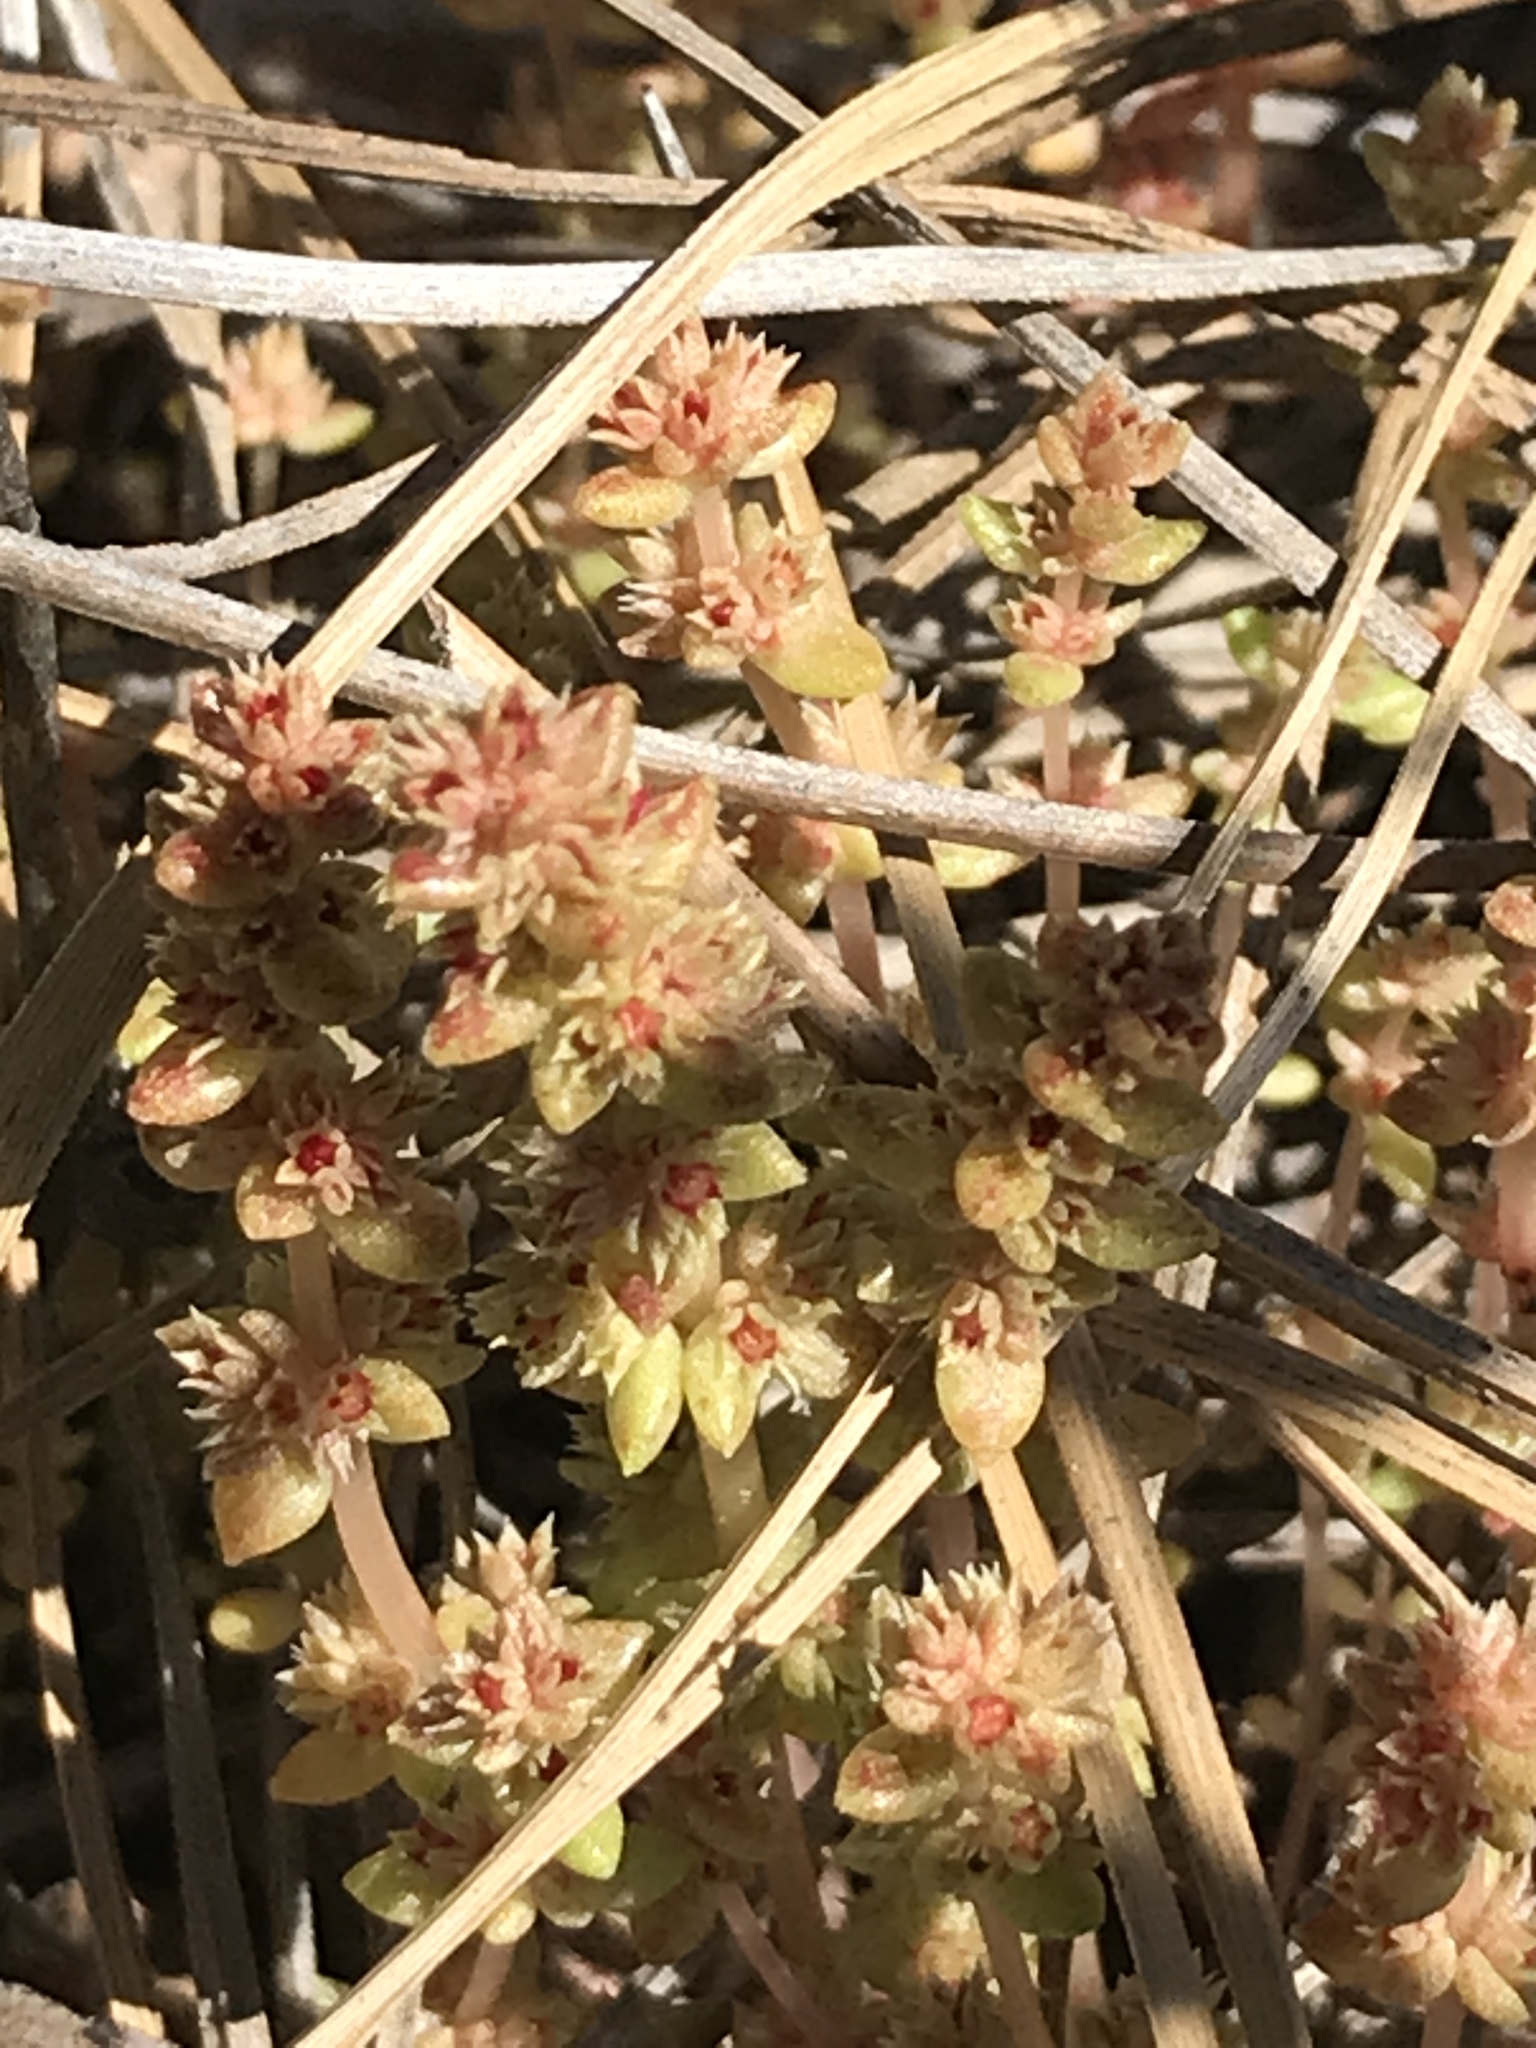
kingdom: Plantae
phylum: Tracheophyta
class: Magnoliopsida
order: Saxifragales
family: Crassulaceae
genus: Crassula
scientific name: Crassula tillaea
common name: Mossy stonecrop
